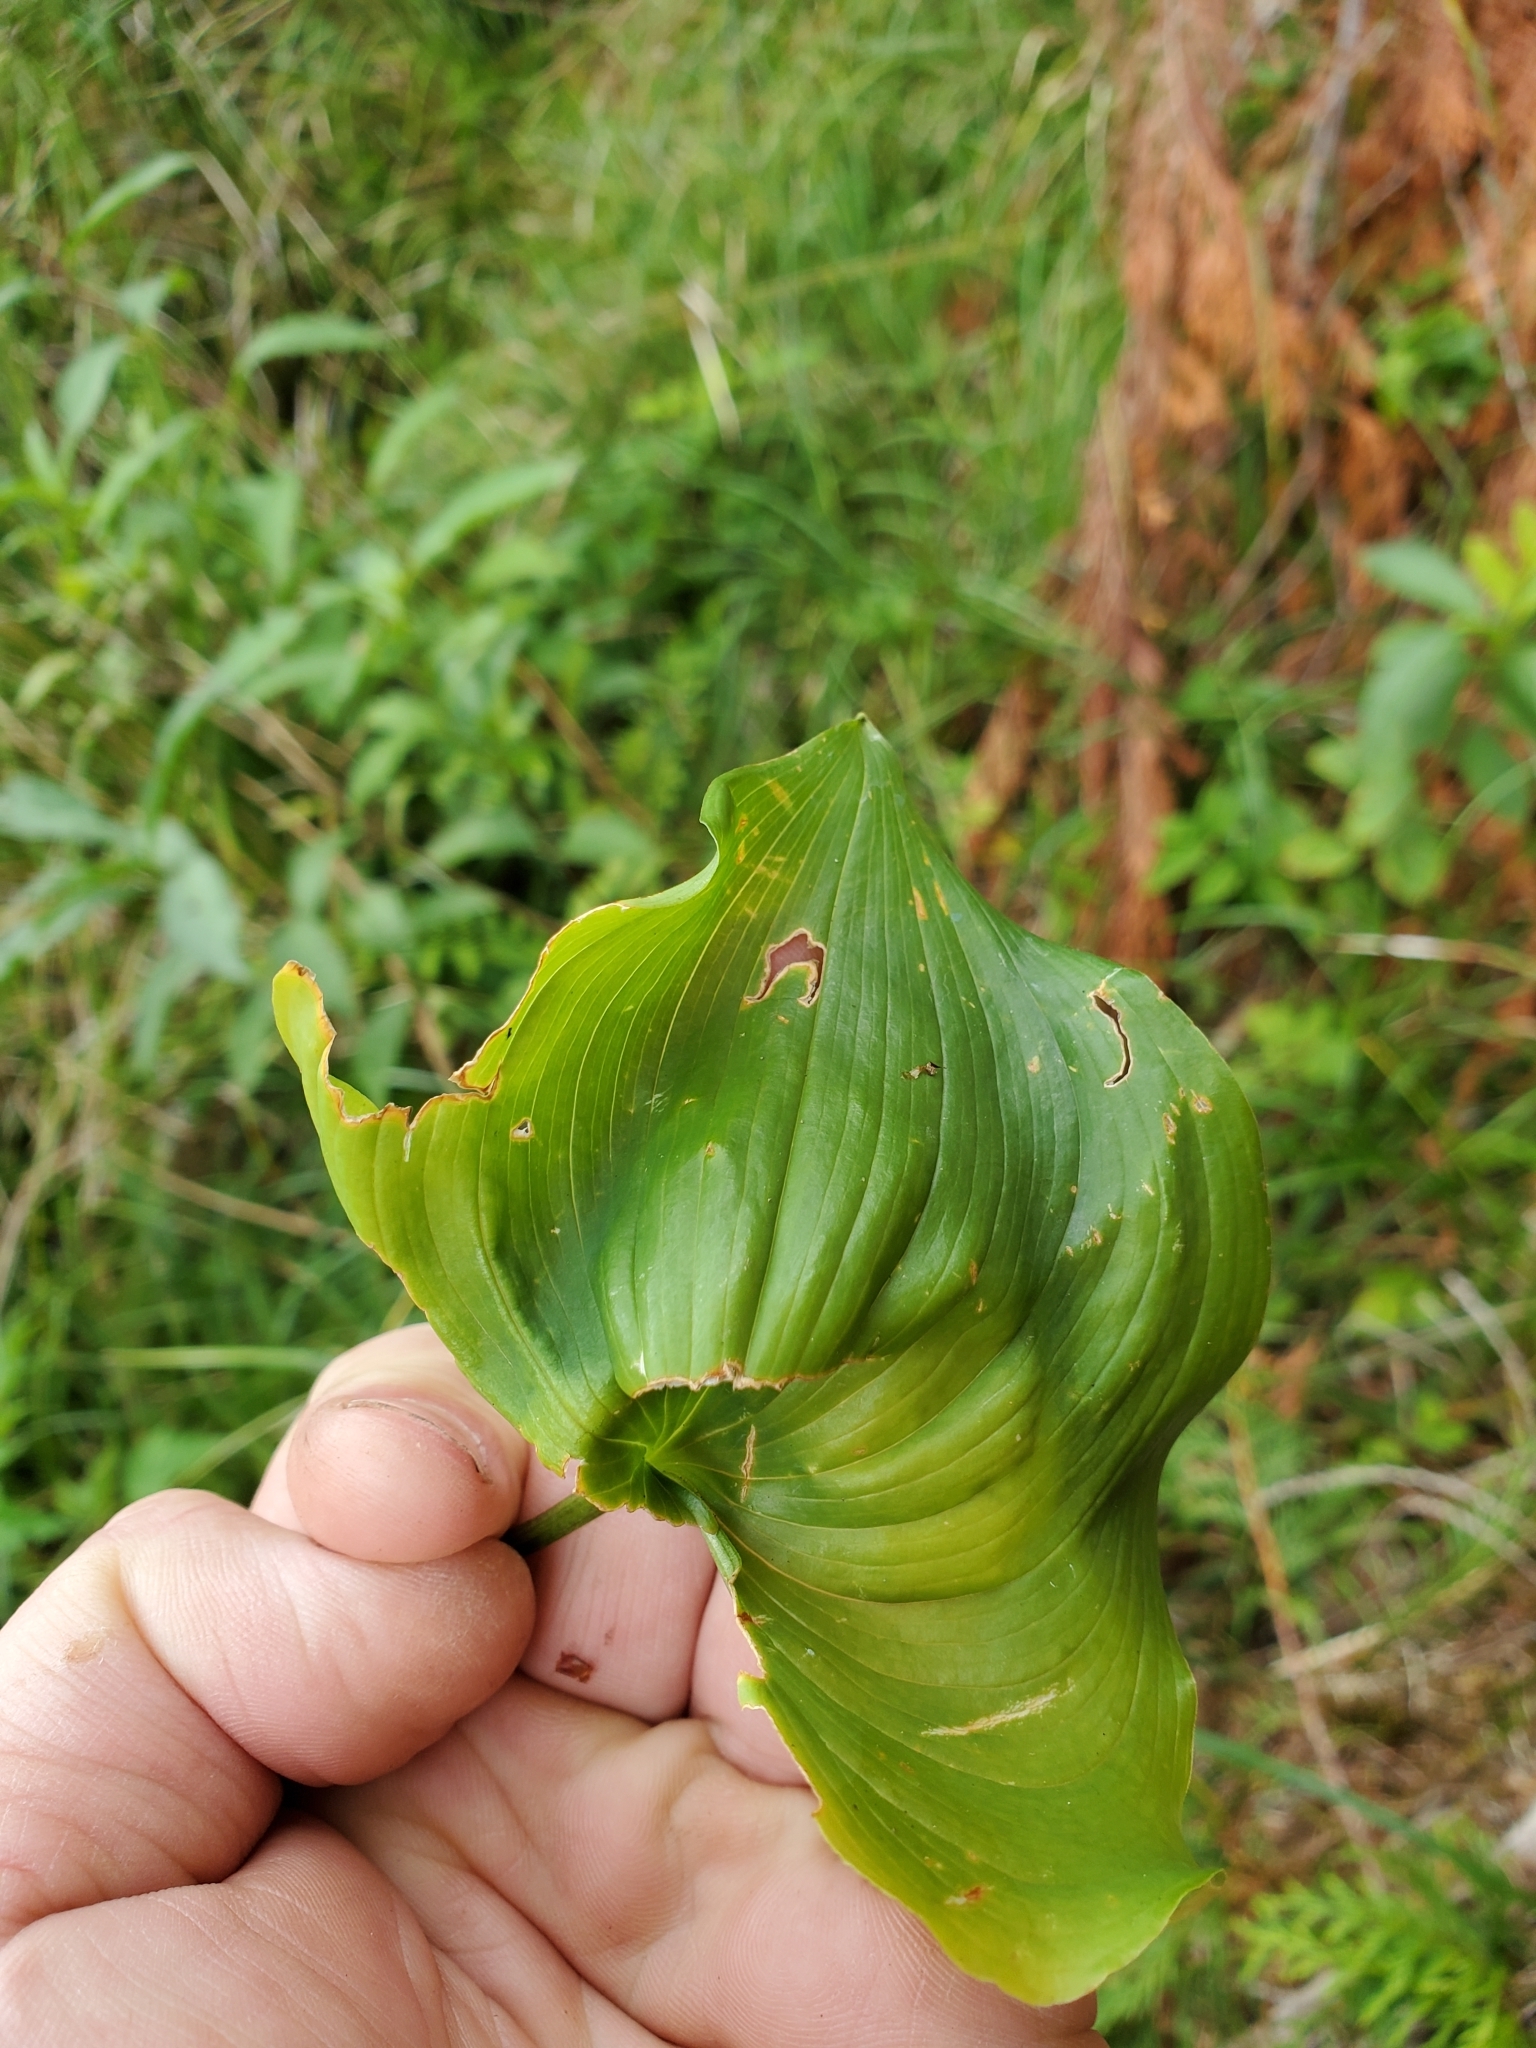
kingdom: Plantae
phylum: Tracheophyta
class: Liliopsida
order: Asparagales
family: Asparagaceae
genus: Maianthemum
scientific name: Maianthemum dilatatum
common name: False lily-of-the-valley
